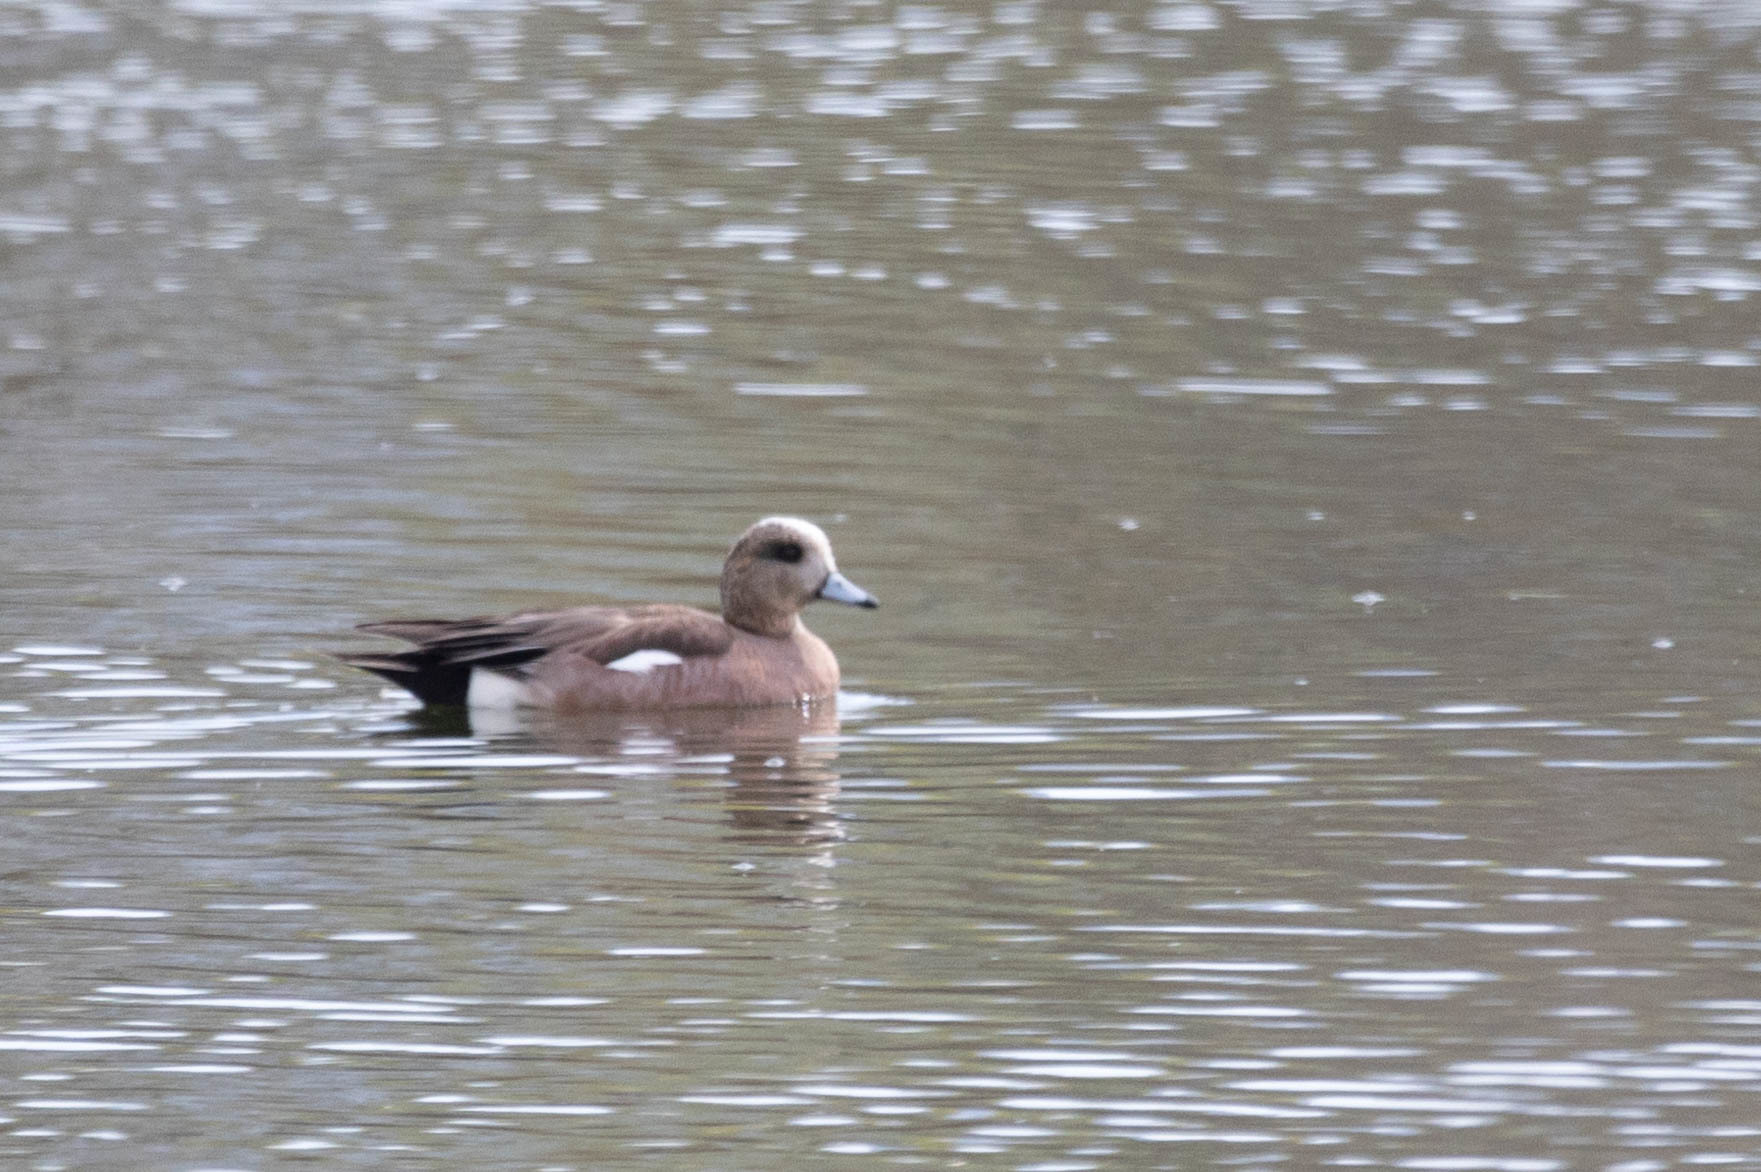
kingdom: Animalia
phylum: Chordata
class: Aves
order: Anseriformes
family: Anatidae
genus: Mareca
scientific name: Mareca americana
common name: American wigeon
